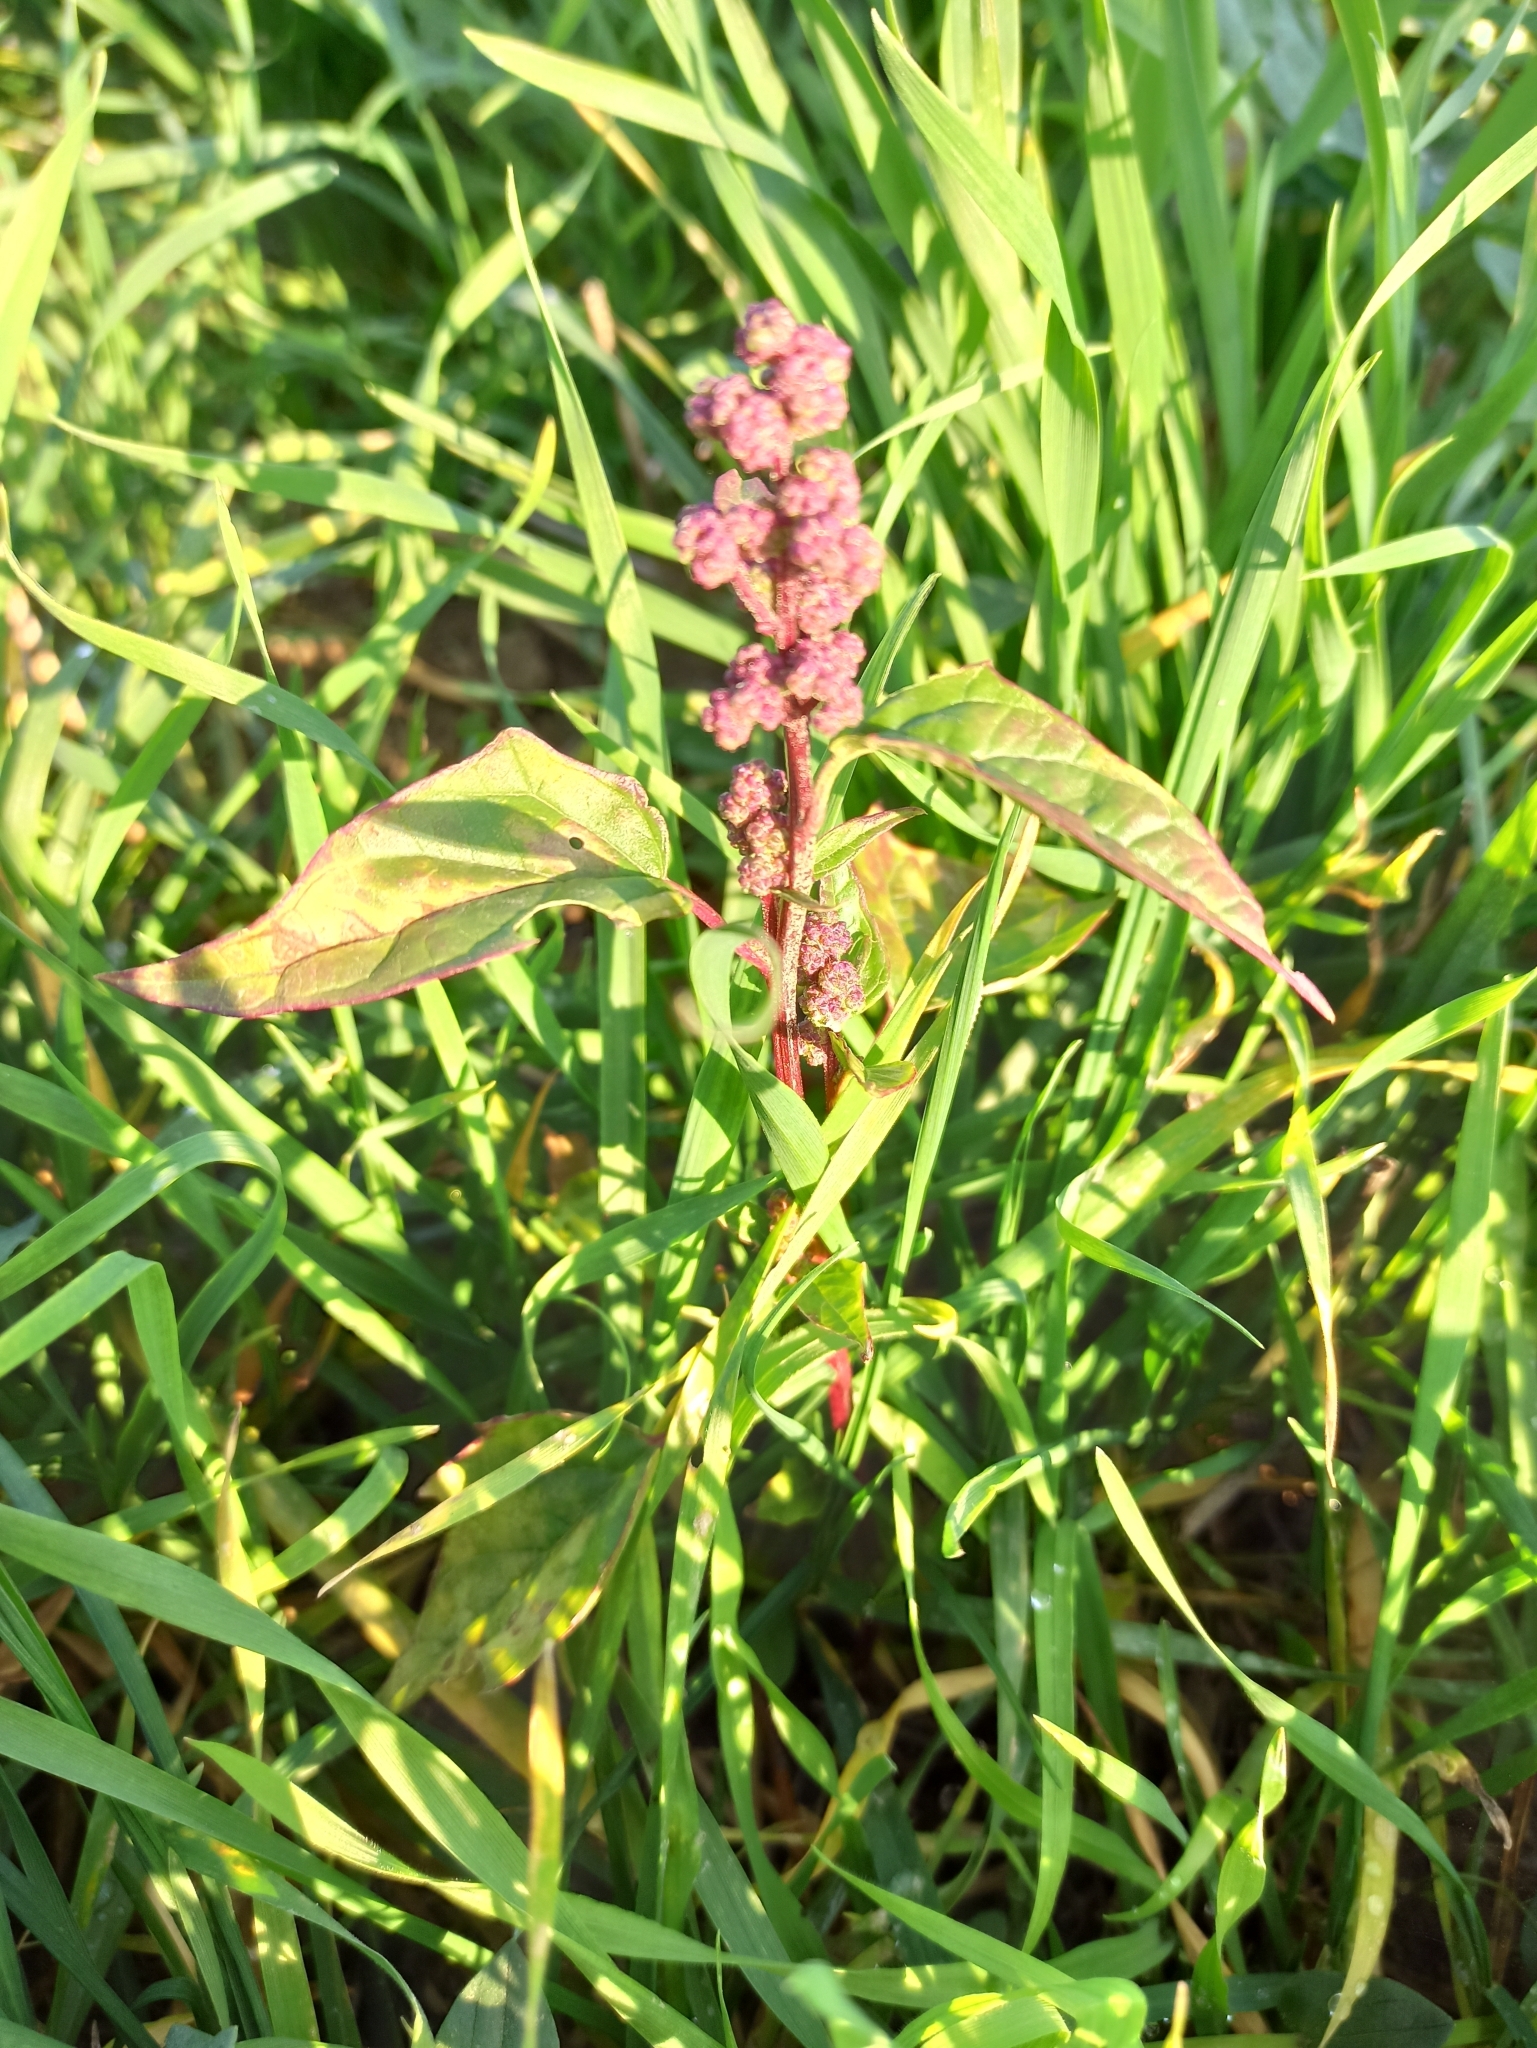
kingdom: Plantae
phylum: Tracheophyta
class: Magnoliopsida
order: Caryophyllales
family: Amaranthaceae
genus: Chenopodiastrum
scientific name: Chenopodiastrum hybridum
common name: Mapleleaf goosefoot
